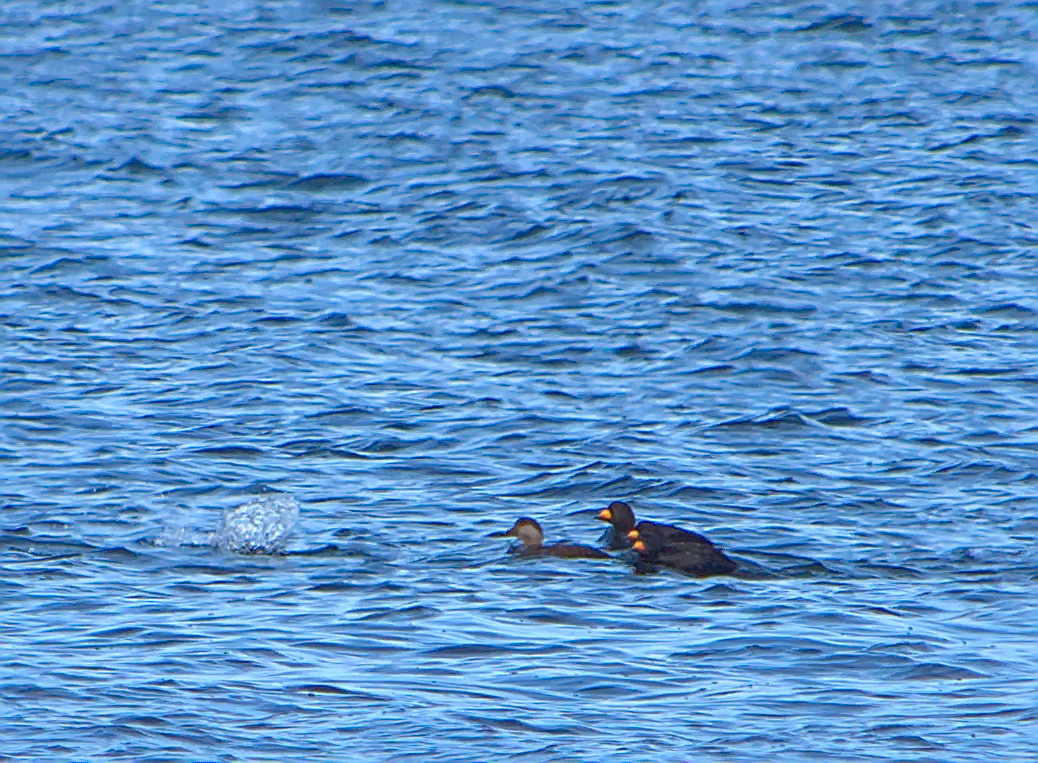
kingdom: Animalia
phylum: Chordata
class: Aves
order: Anseriformes
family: Anatidae
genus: Melanitta
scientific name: Melanitta americana
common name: Black scoter
